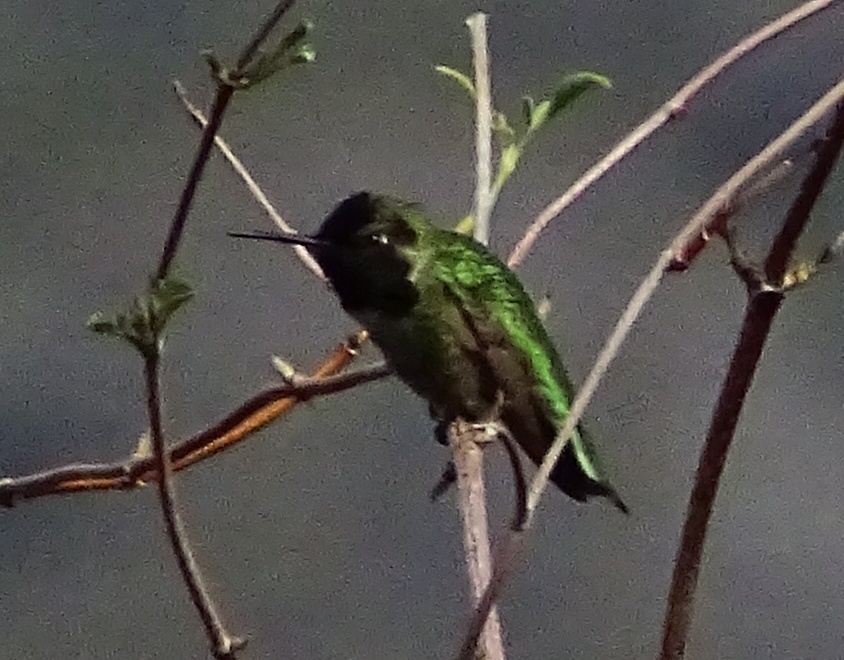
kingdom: Animalia
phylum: Chordata
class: Aves
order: Apodiformes
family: Trochilidae
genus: Calypte
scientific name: Calypte anna
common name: Anna's hummingbird
